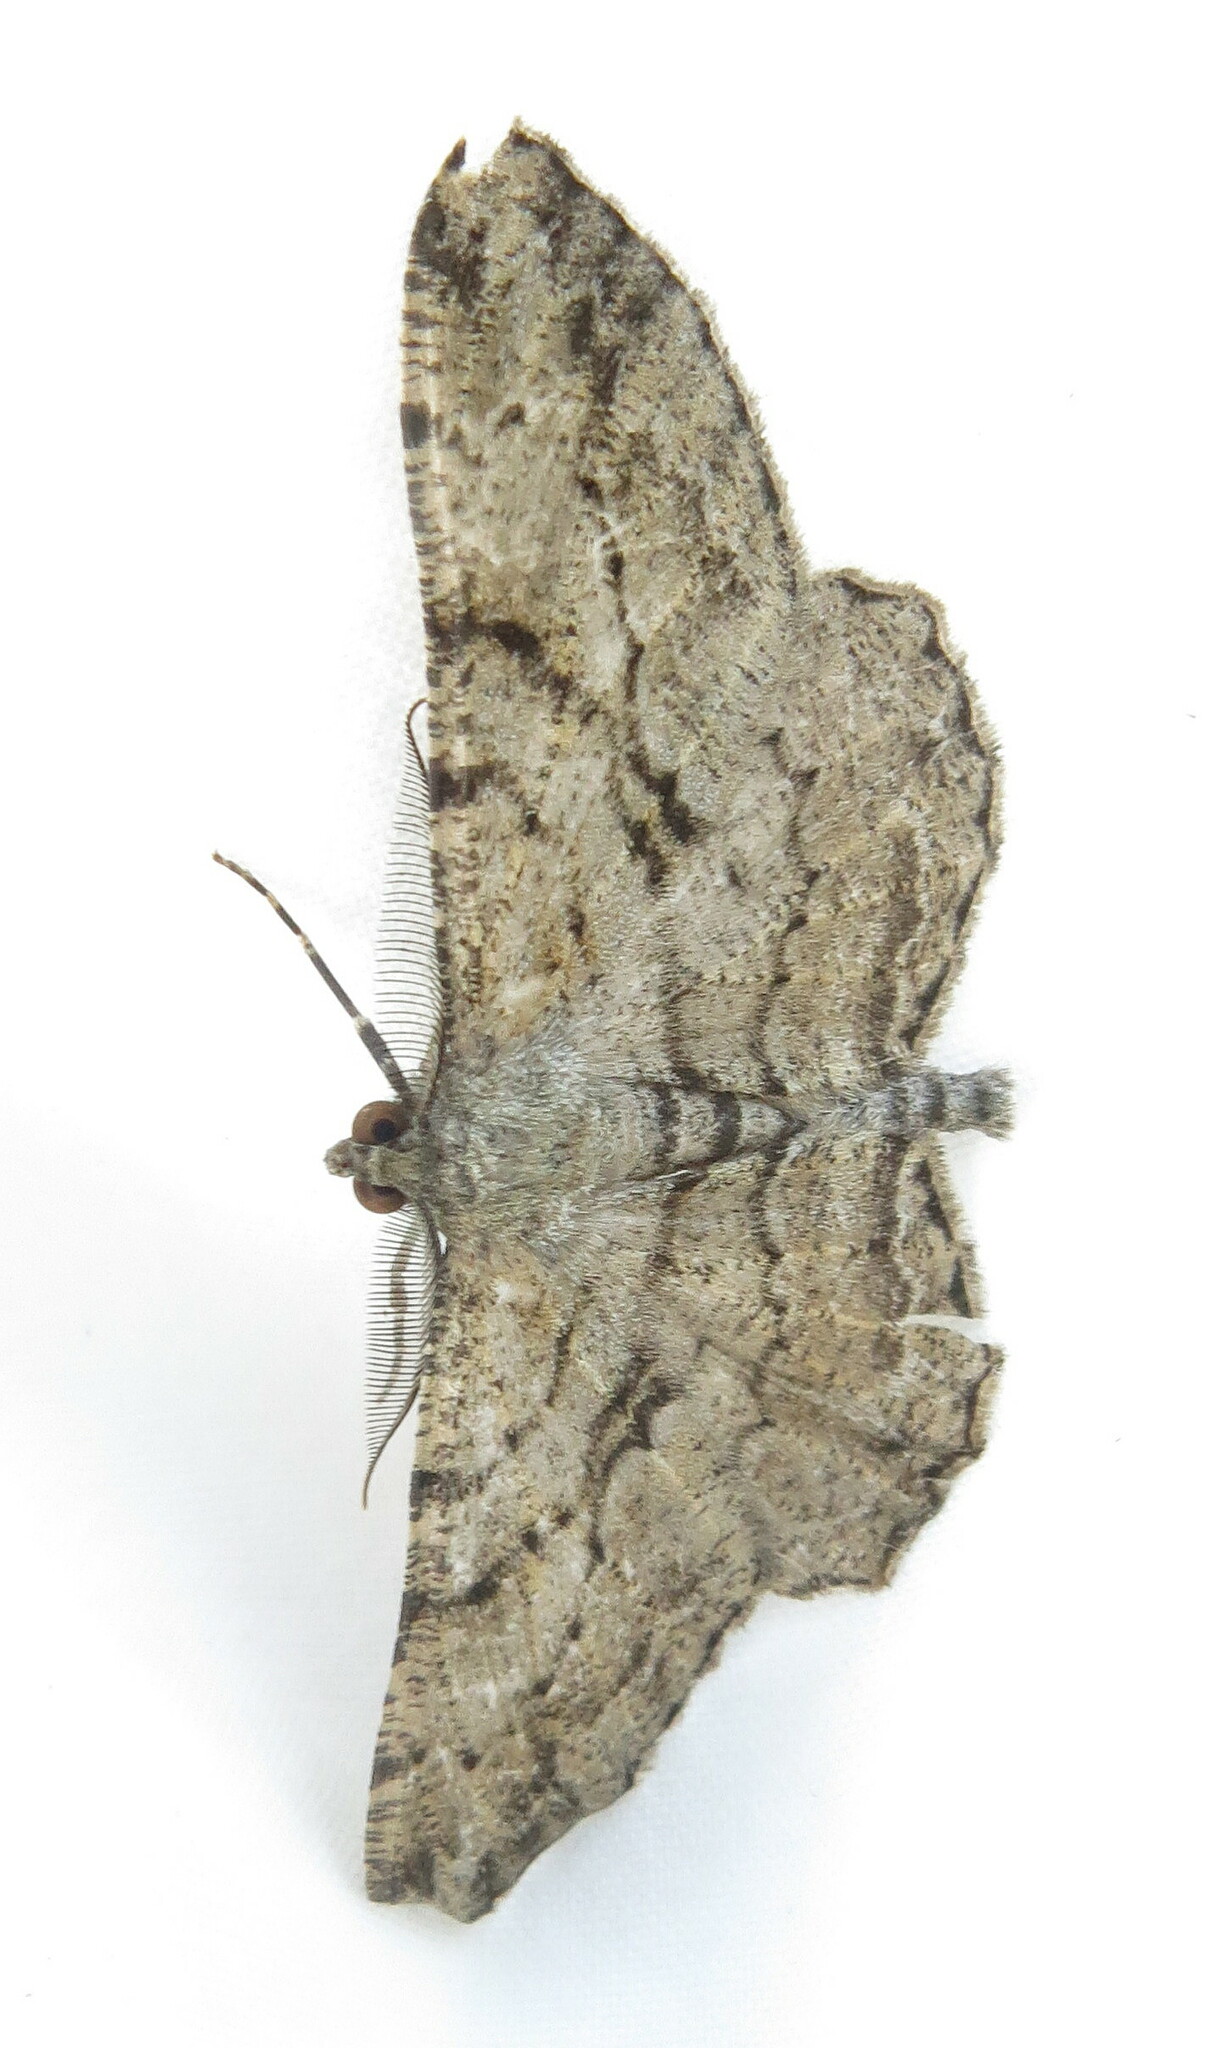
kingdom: Animalia
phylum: Arthropoda
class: Insecta
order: Lepidoptera
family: Geometridae
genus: Peribatodes
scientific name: Peribatodes rhomboidaria
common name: Willow beauty
